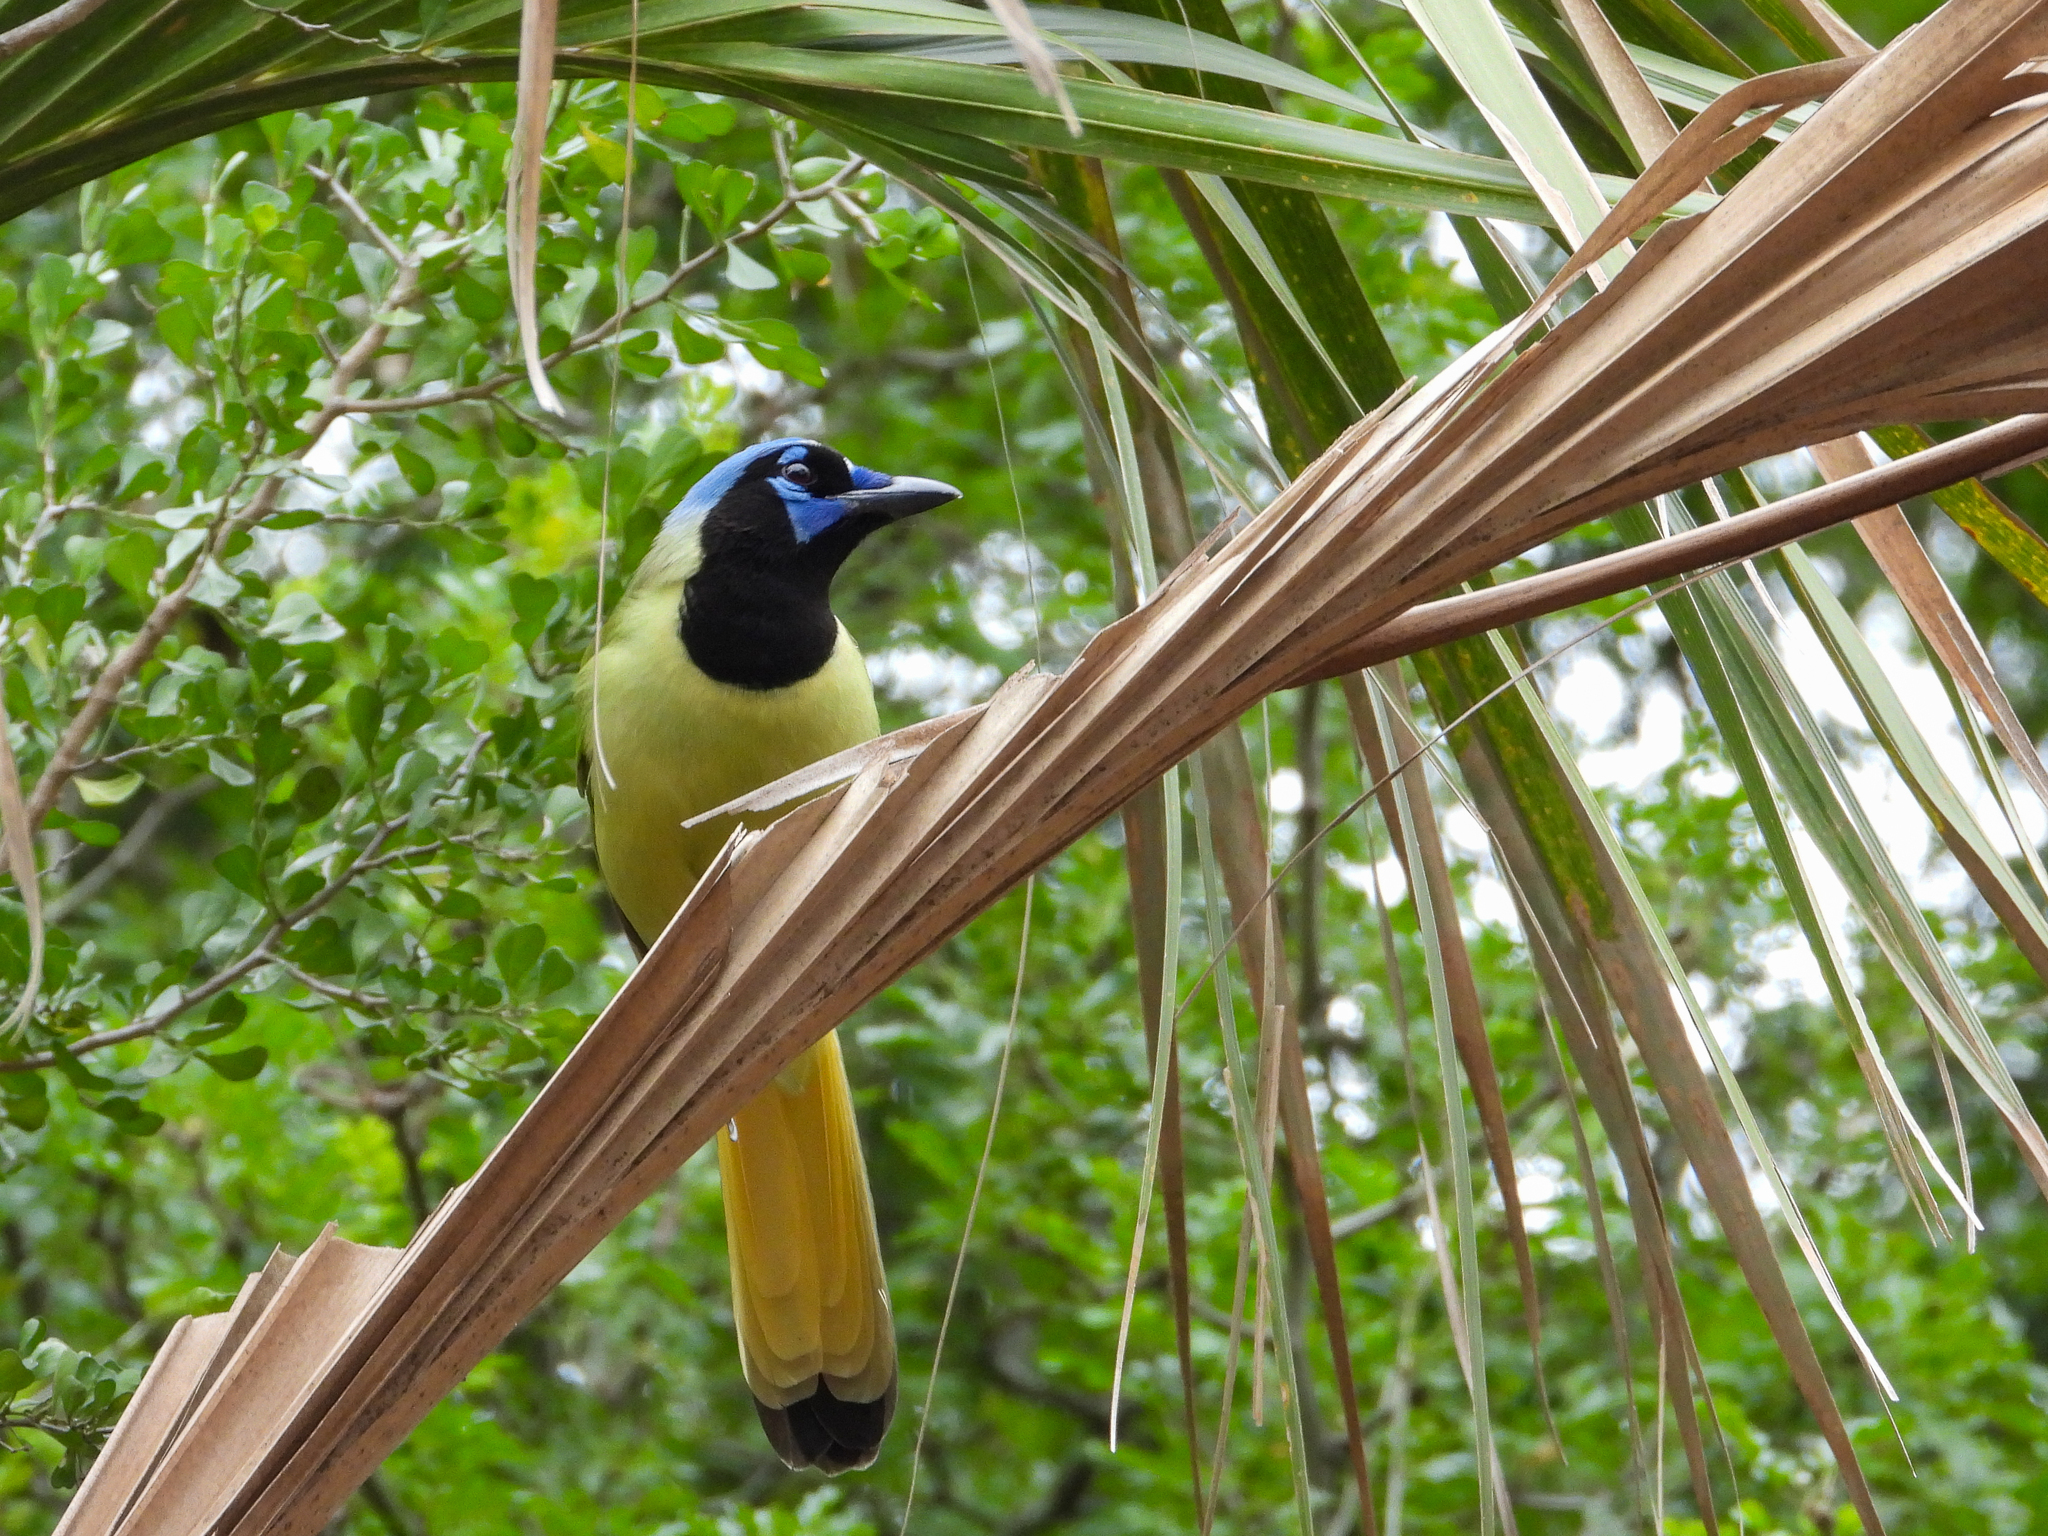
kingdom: Animalia
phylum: Chordata
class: Aves
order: Passeriformes
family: Corvidae
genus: Cyanocorax
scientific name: Cyanocorax yncas
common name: Green jay
